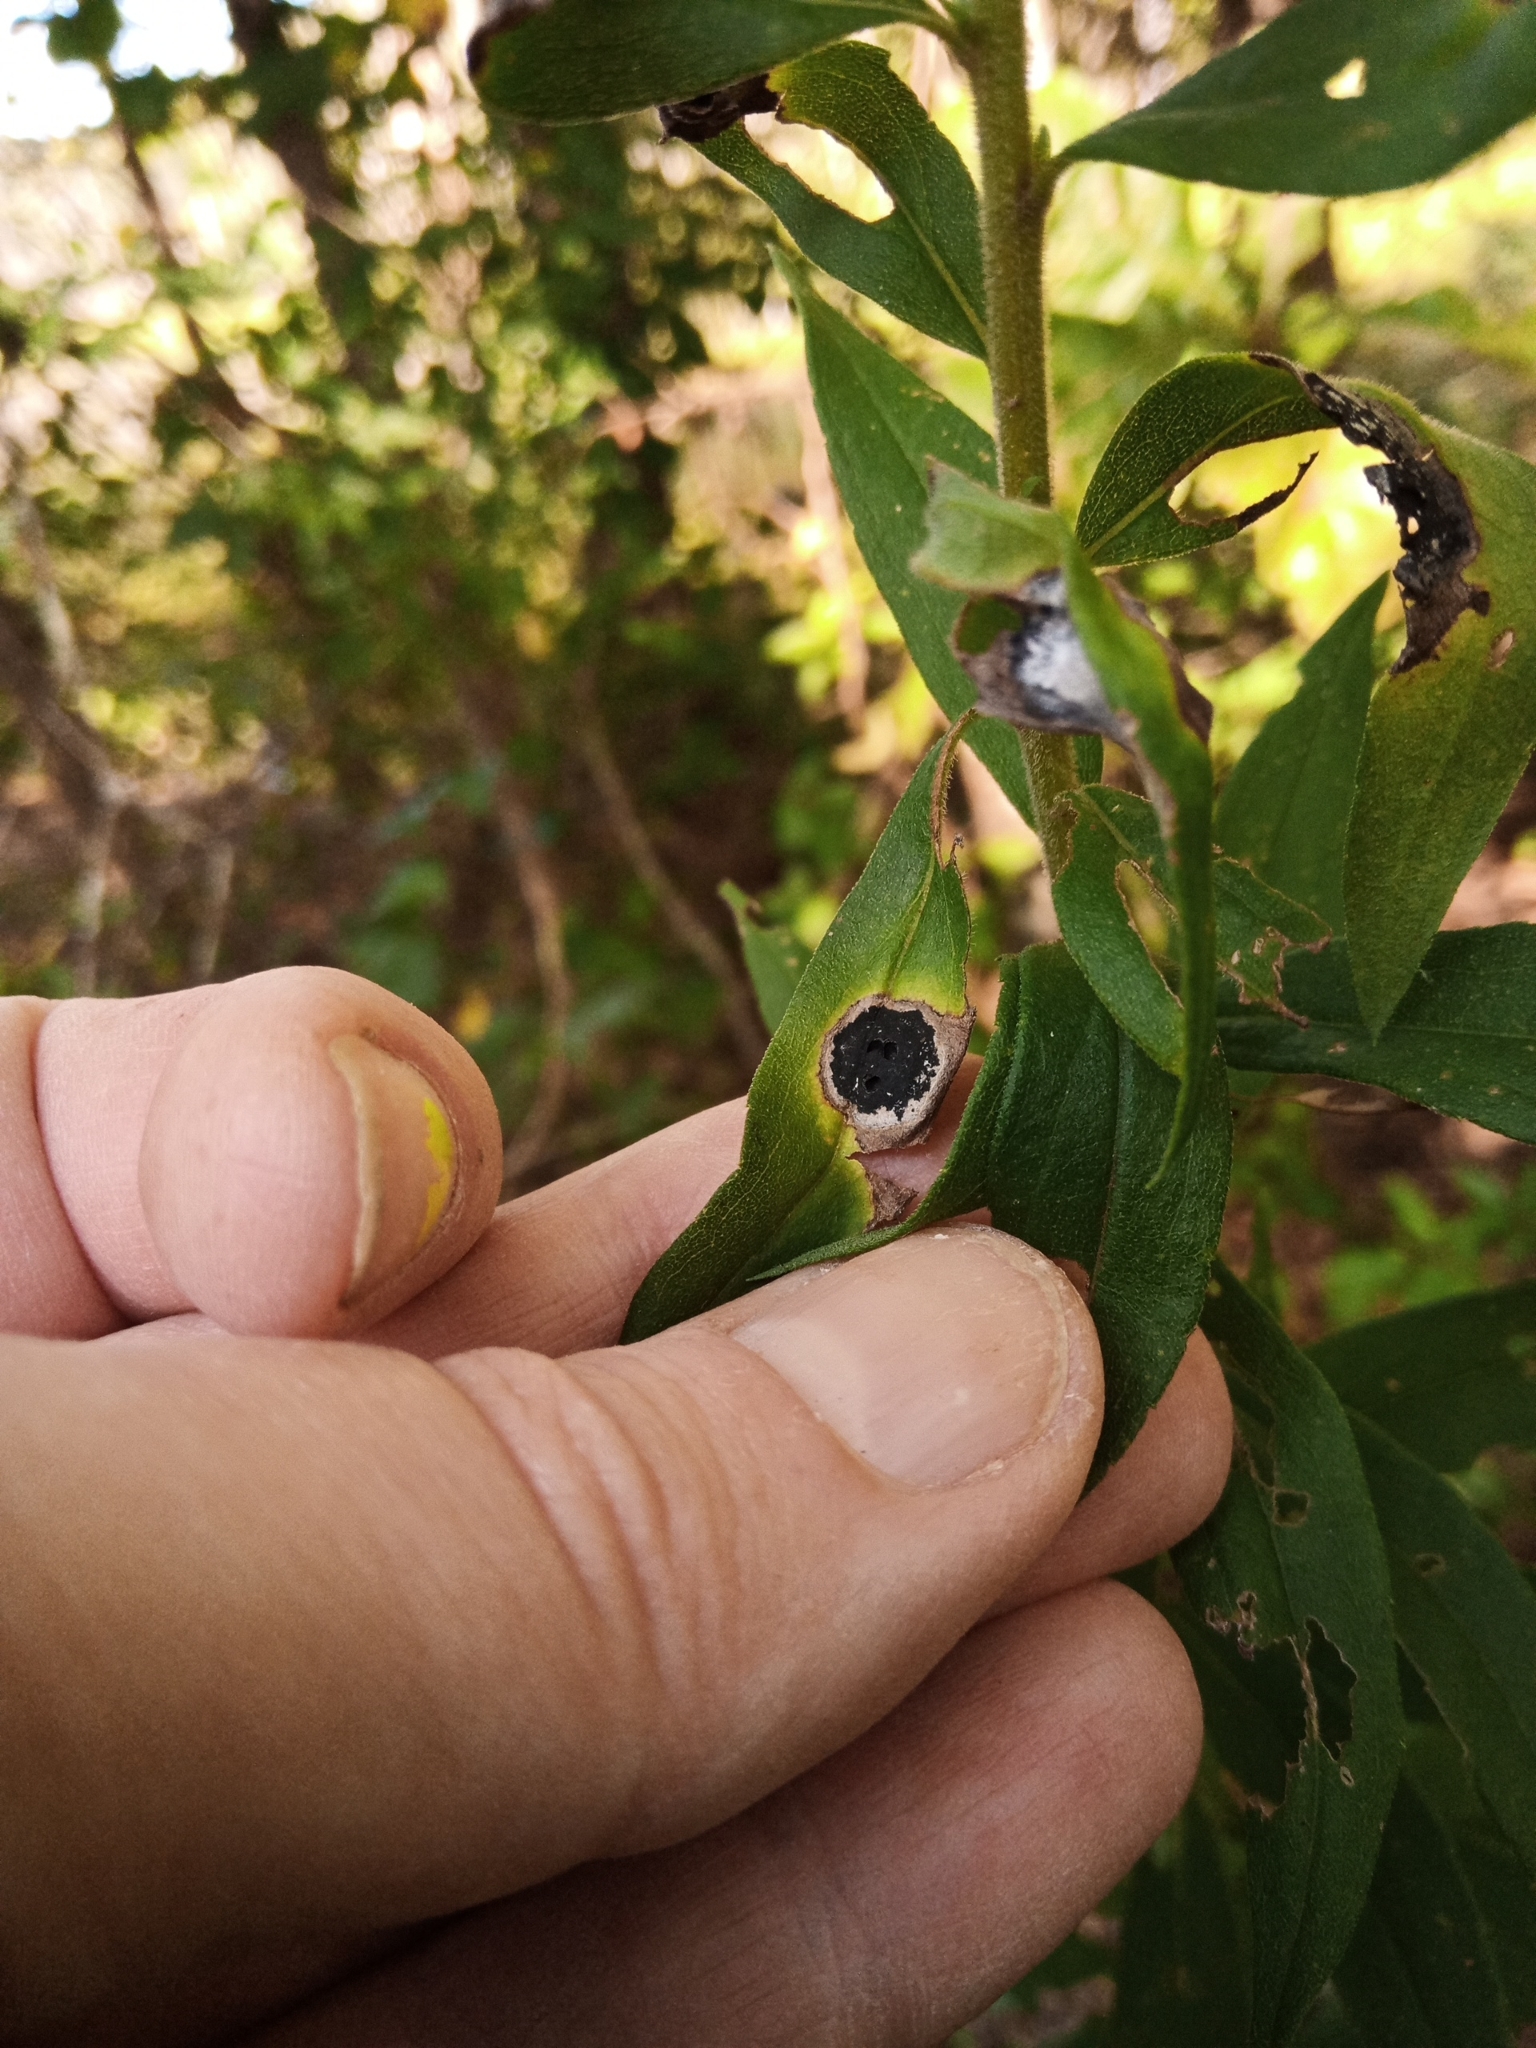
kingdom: Animalia
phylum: Arthropoda
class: Insecta
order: Diptera
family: Cecidomyiidae
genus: Asteromyia
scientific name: Asteromyia carbonifera
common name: Carbonifera goldenrod gall midge
